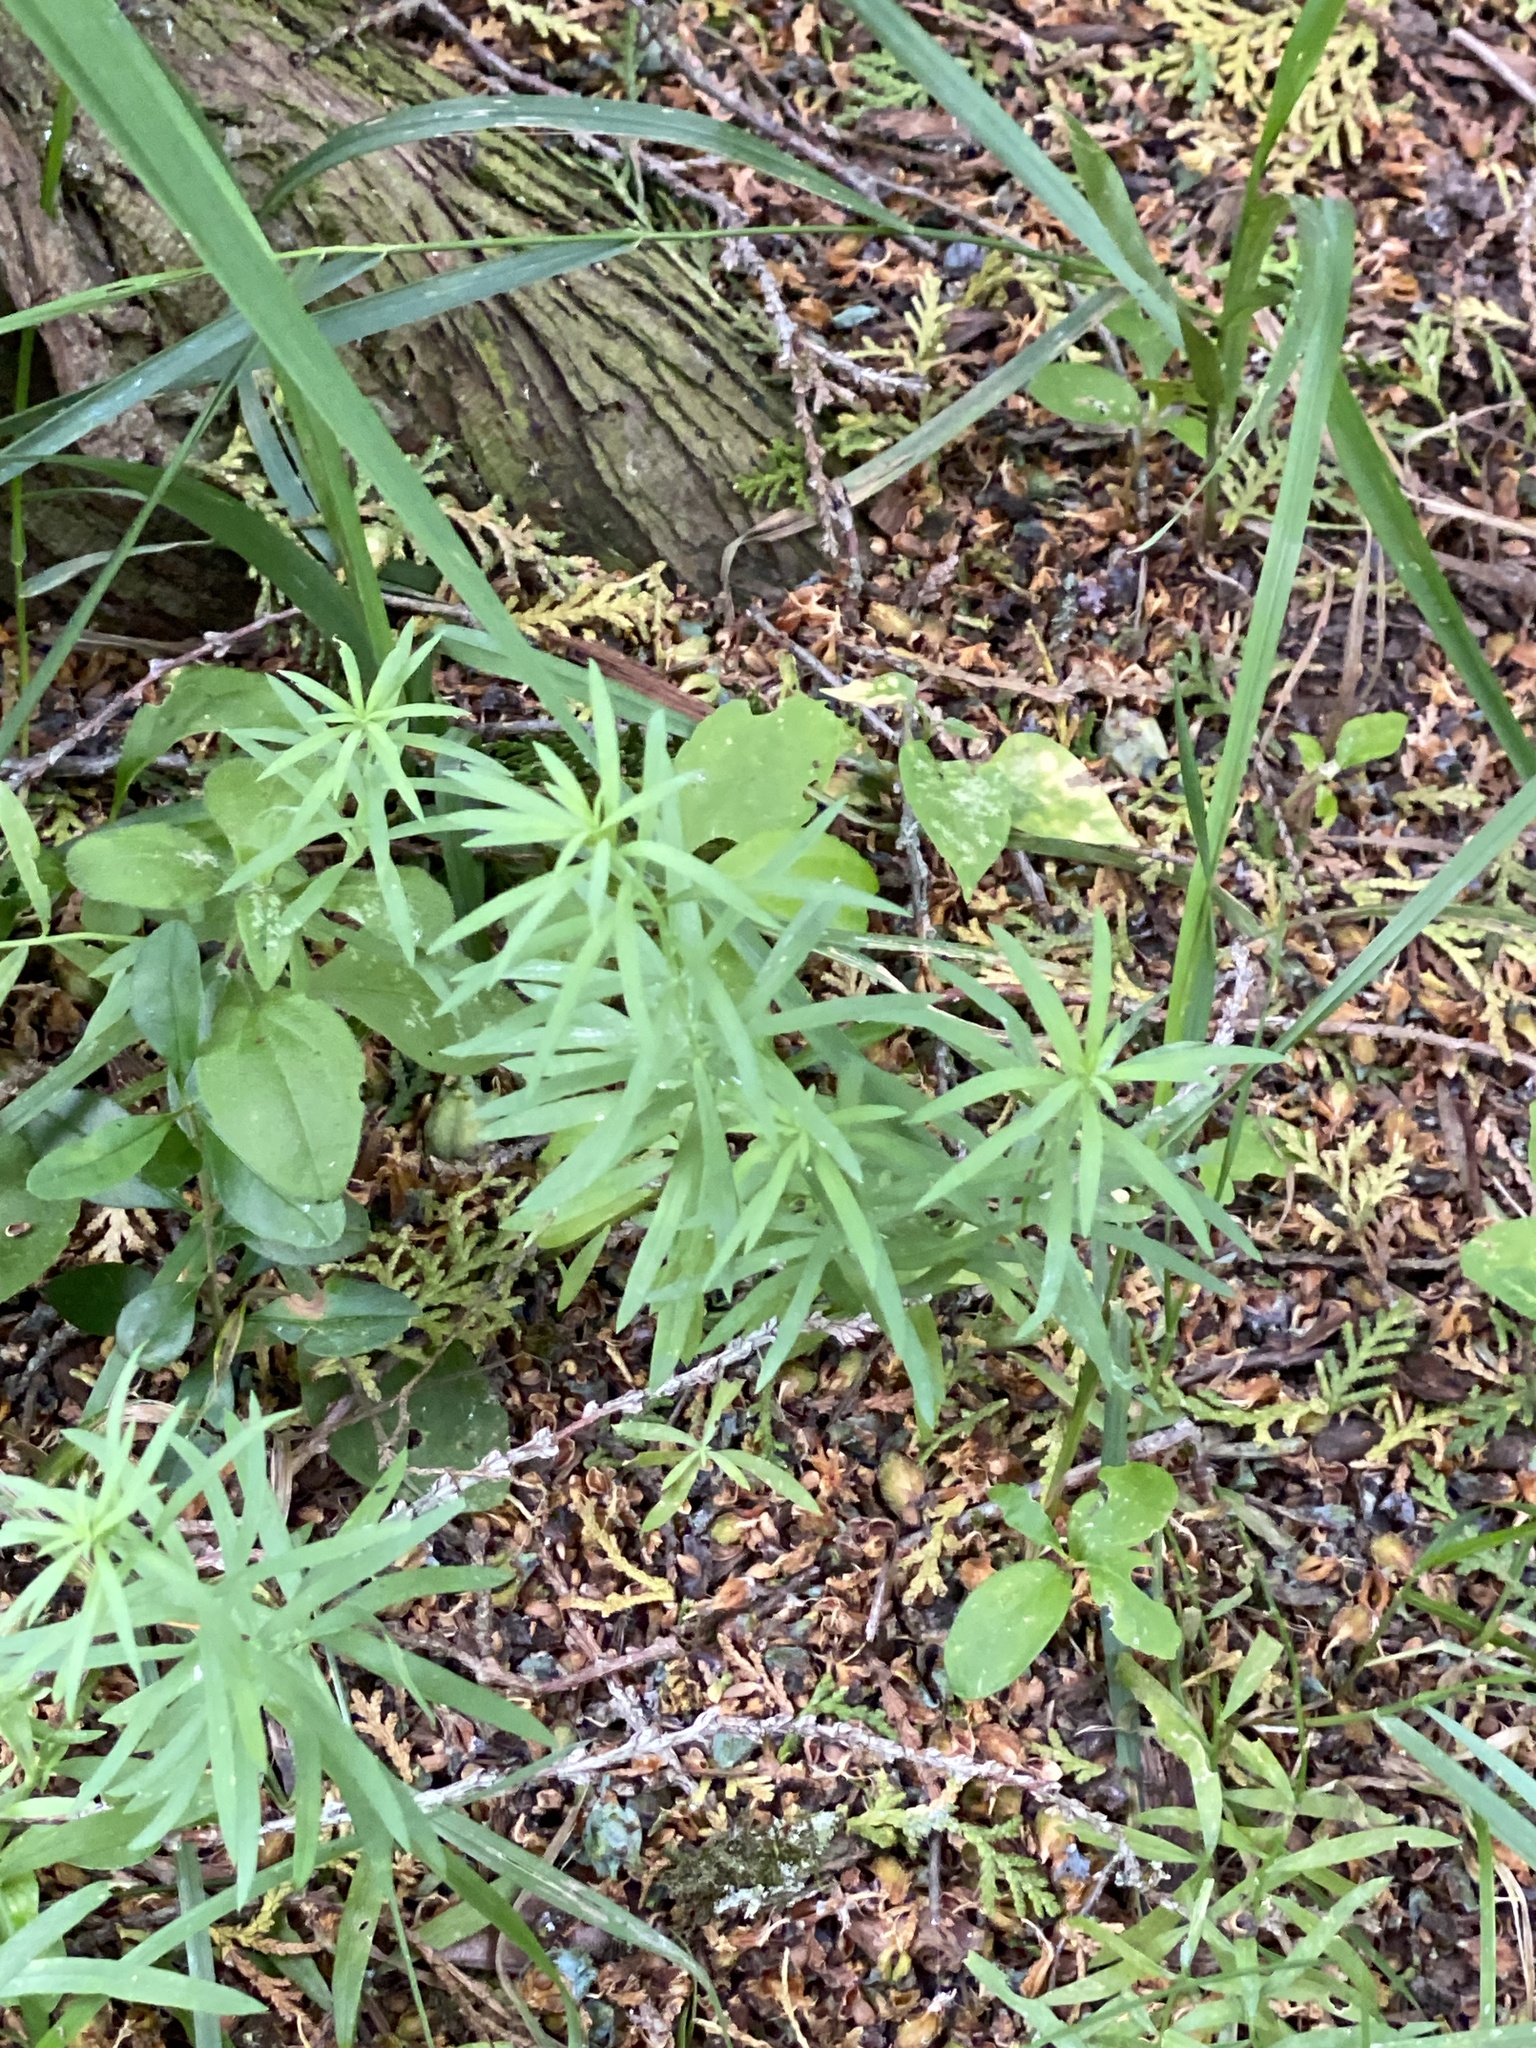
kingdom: Plantae
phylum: Tracheophyta
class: Magnoliopsida
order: Lamiales
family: Plantaginaceae
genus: Linaria
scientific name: Linaria vulgaris
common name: Butter and eggs
